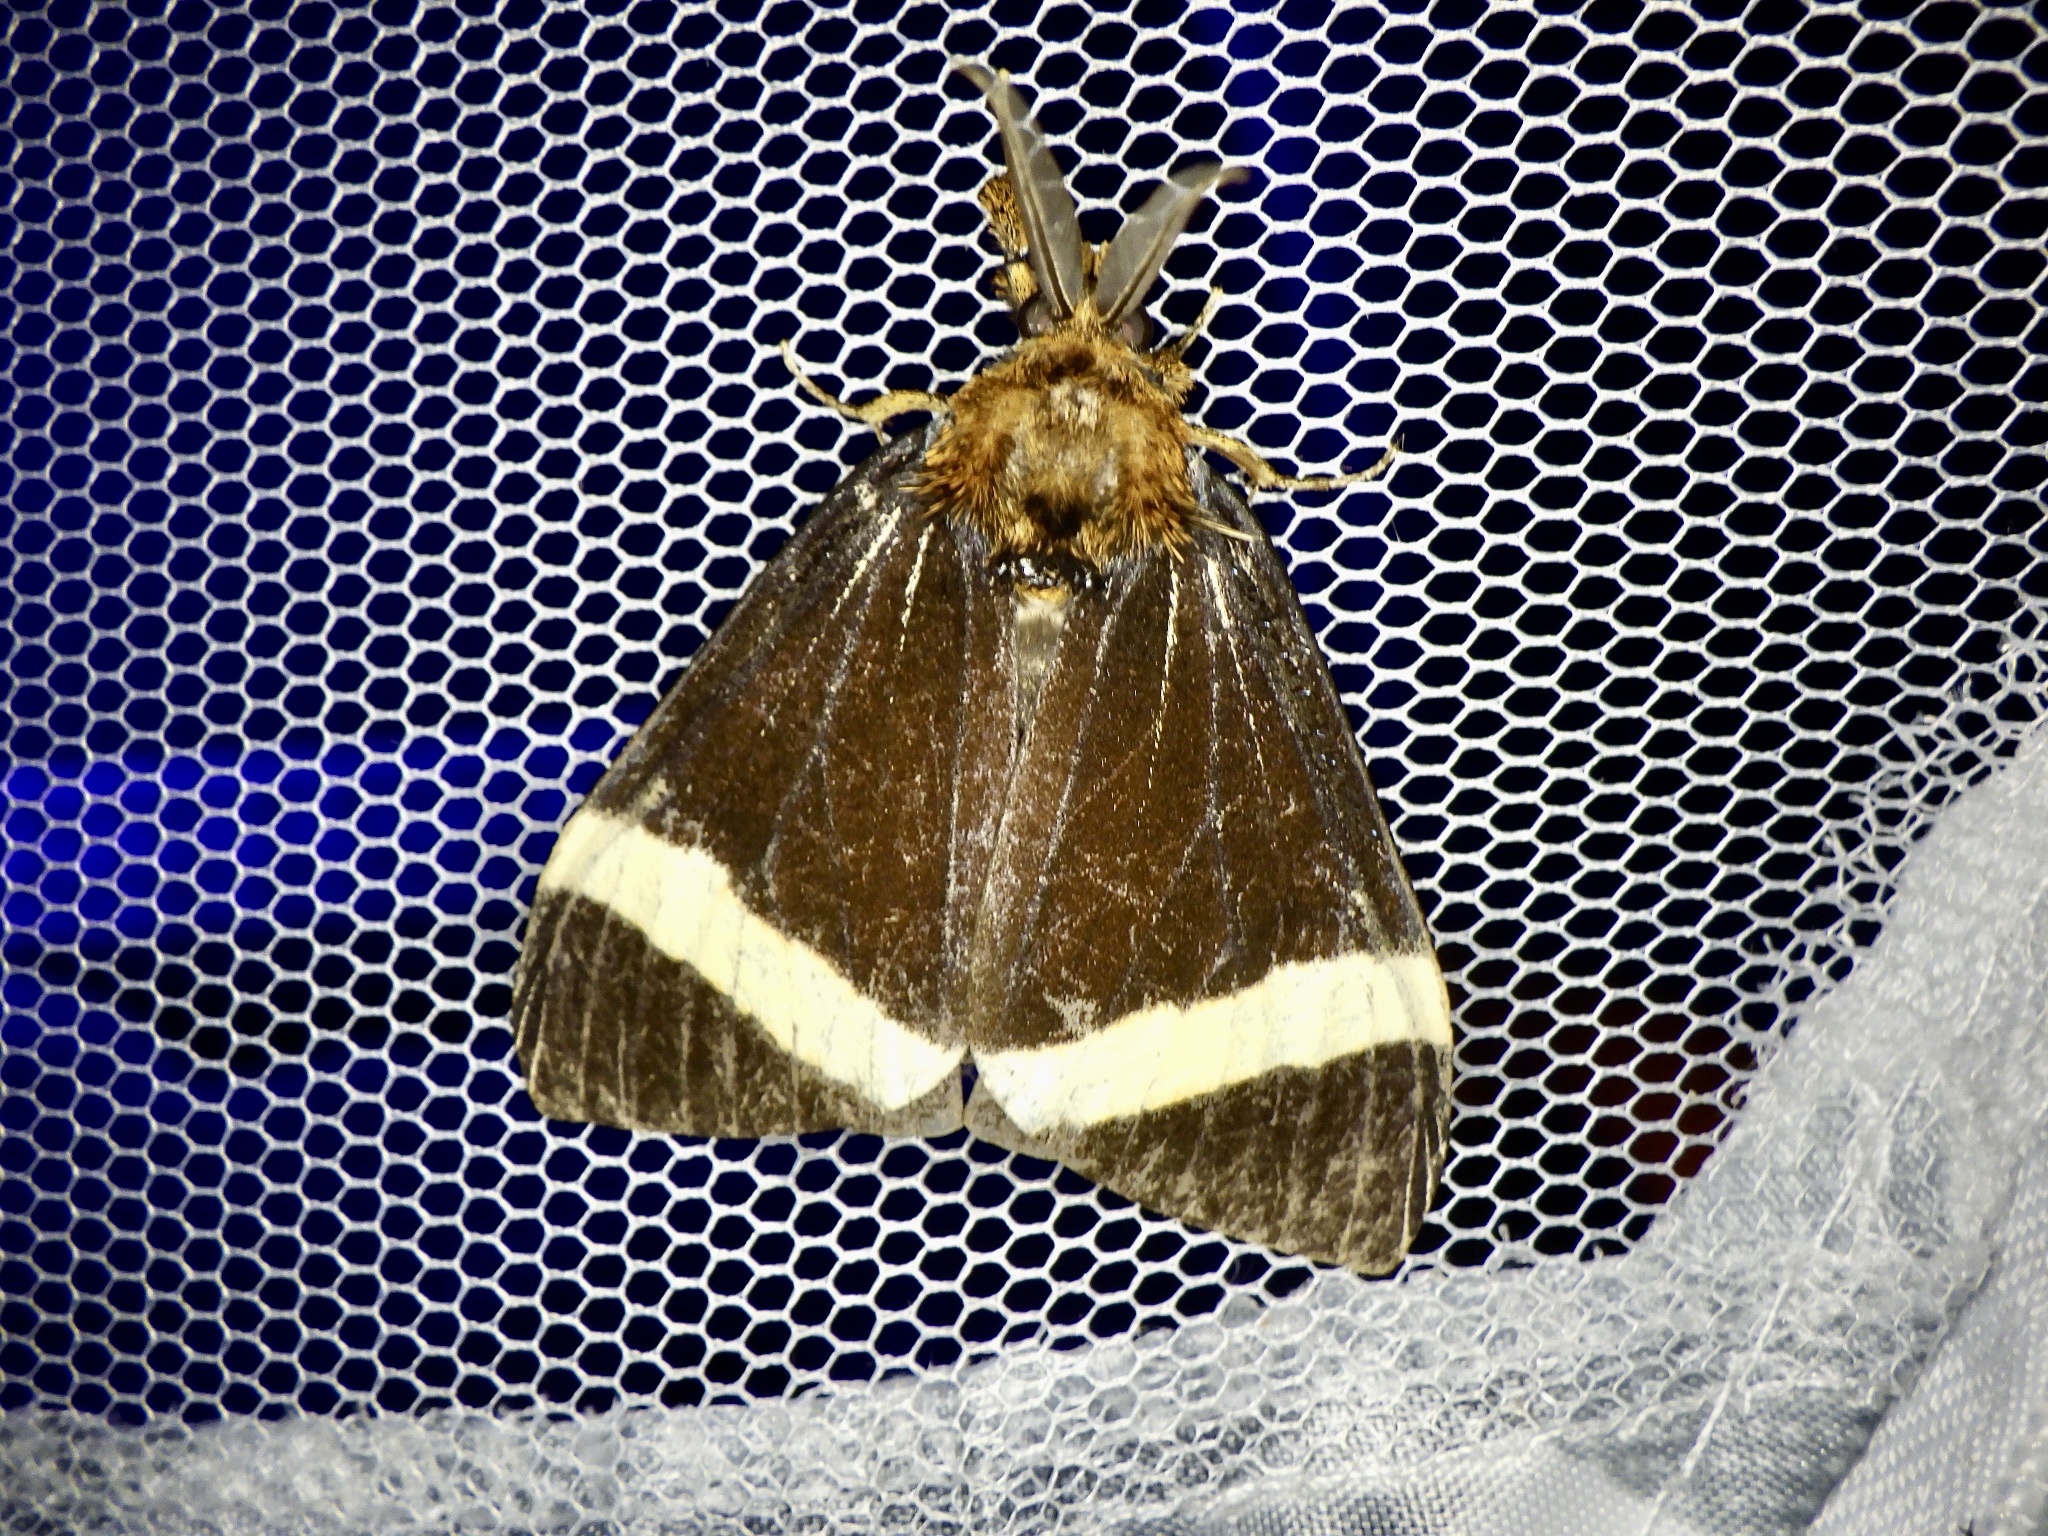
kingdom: Animalia
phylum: Arthropoda
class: Insecta
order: Lepidoptera
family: Erebidae
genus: Kuromondokuga
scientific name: Kuromondokuga albofascia
